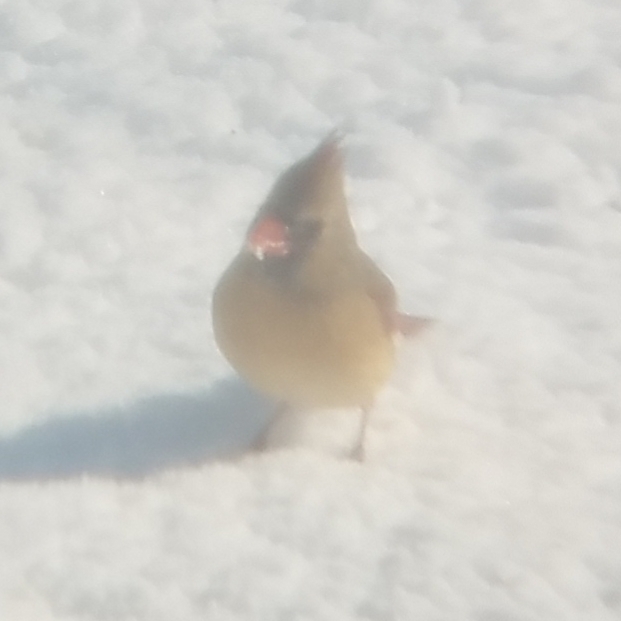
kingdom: Animalia
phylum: Chordata
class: Aves
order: Passeriformes
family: Cardinalidae
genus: Cardinalis
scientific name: Cardinalis cardinalis
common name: Northern cardinal
